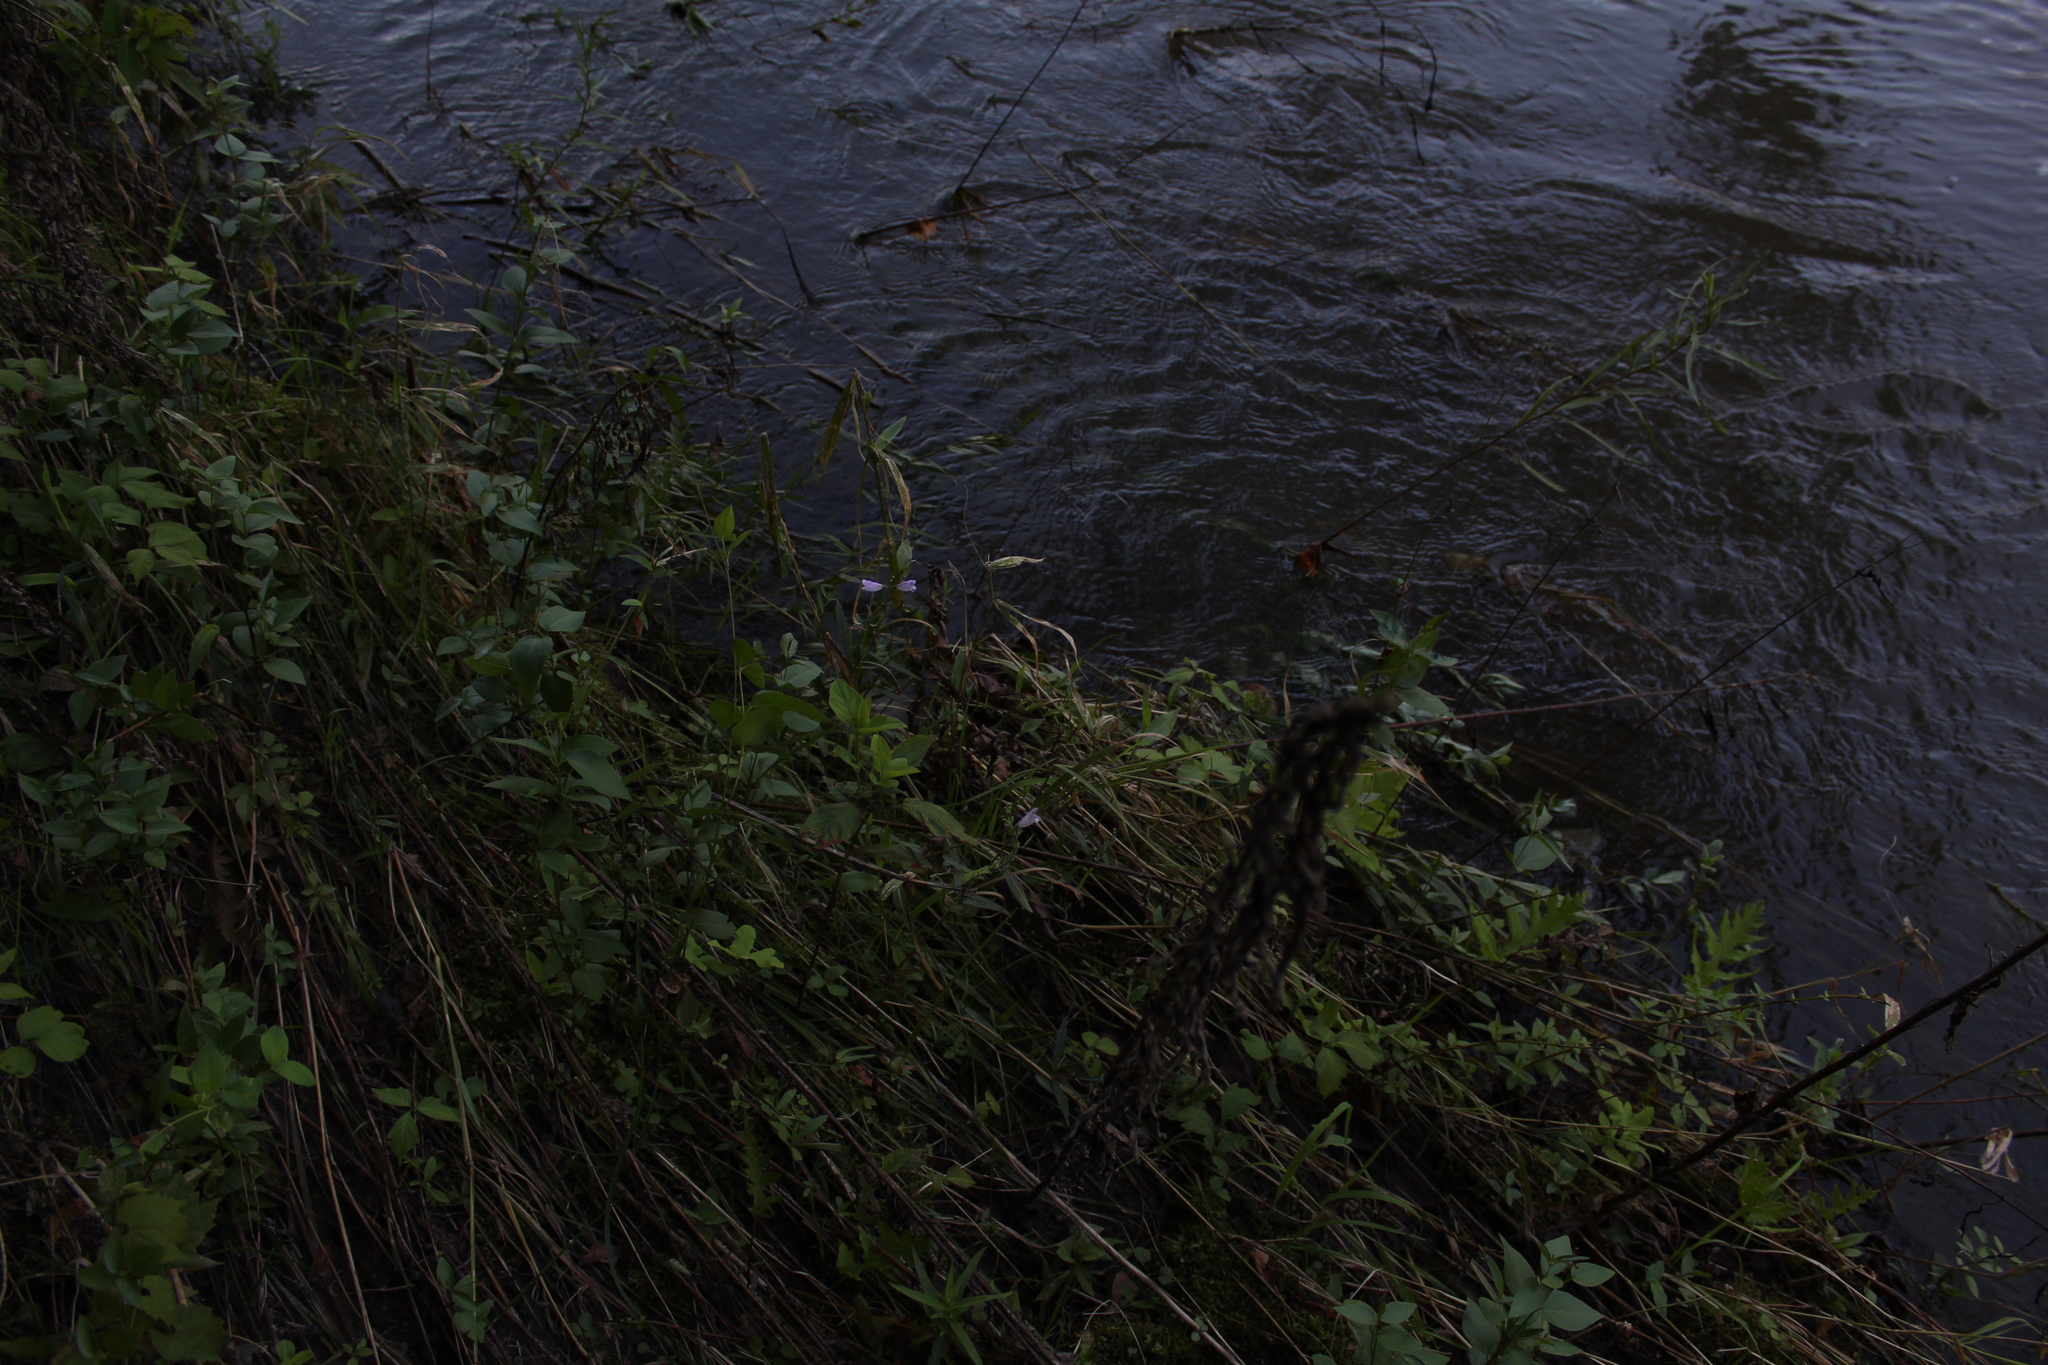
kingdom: Plantae
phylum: Tracheophyta
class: Magnoliopsida
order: Lamiales
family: Lamiaceae
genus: Physostegia
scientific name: Physostegia virginiana
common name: Obedient-plant
